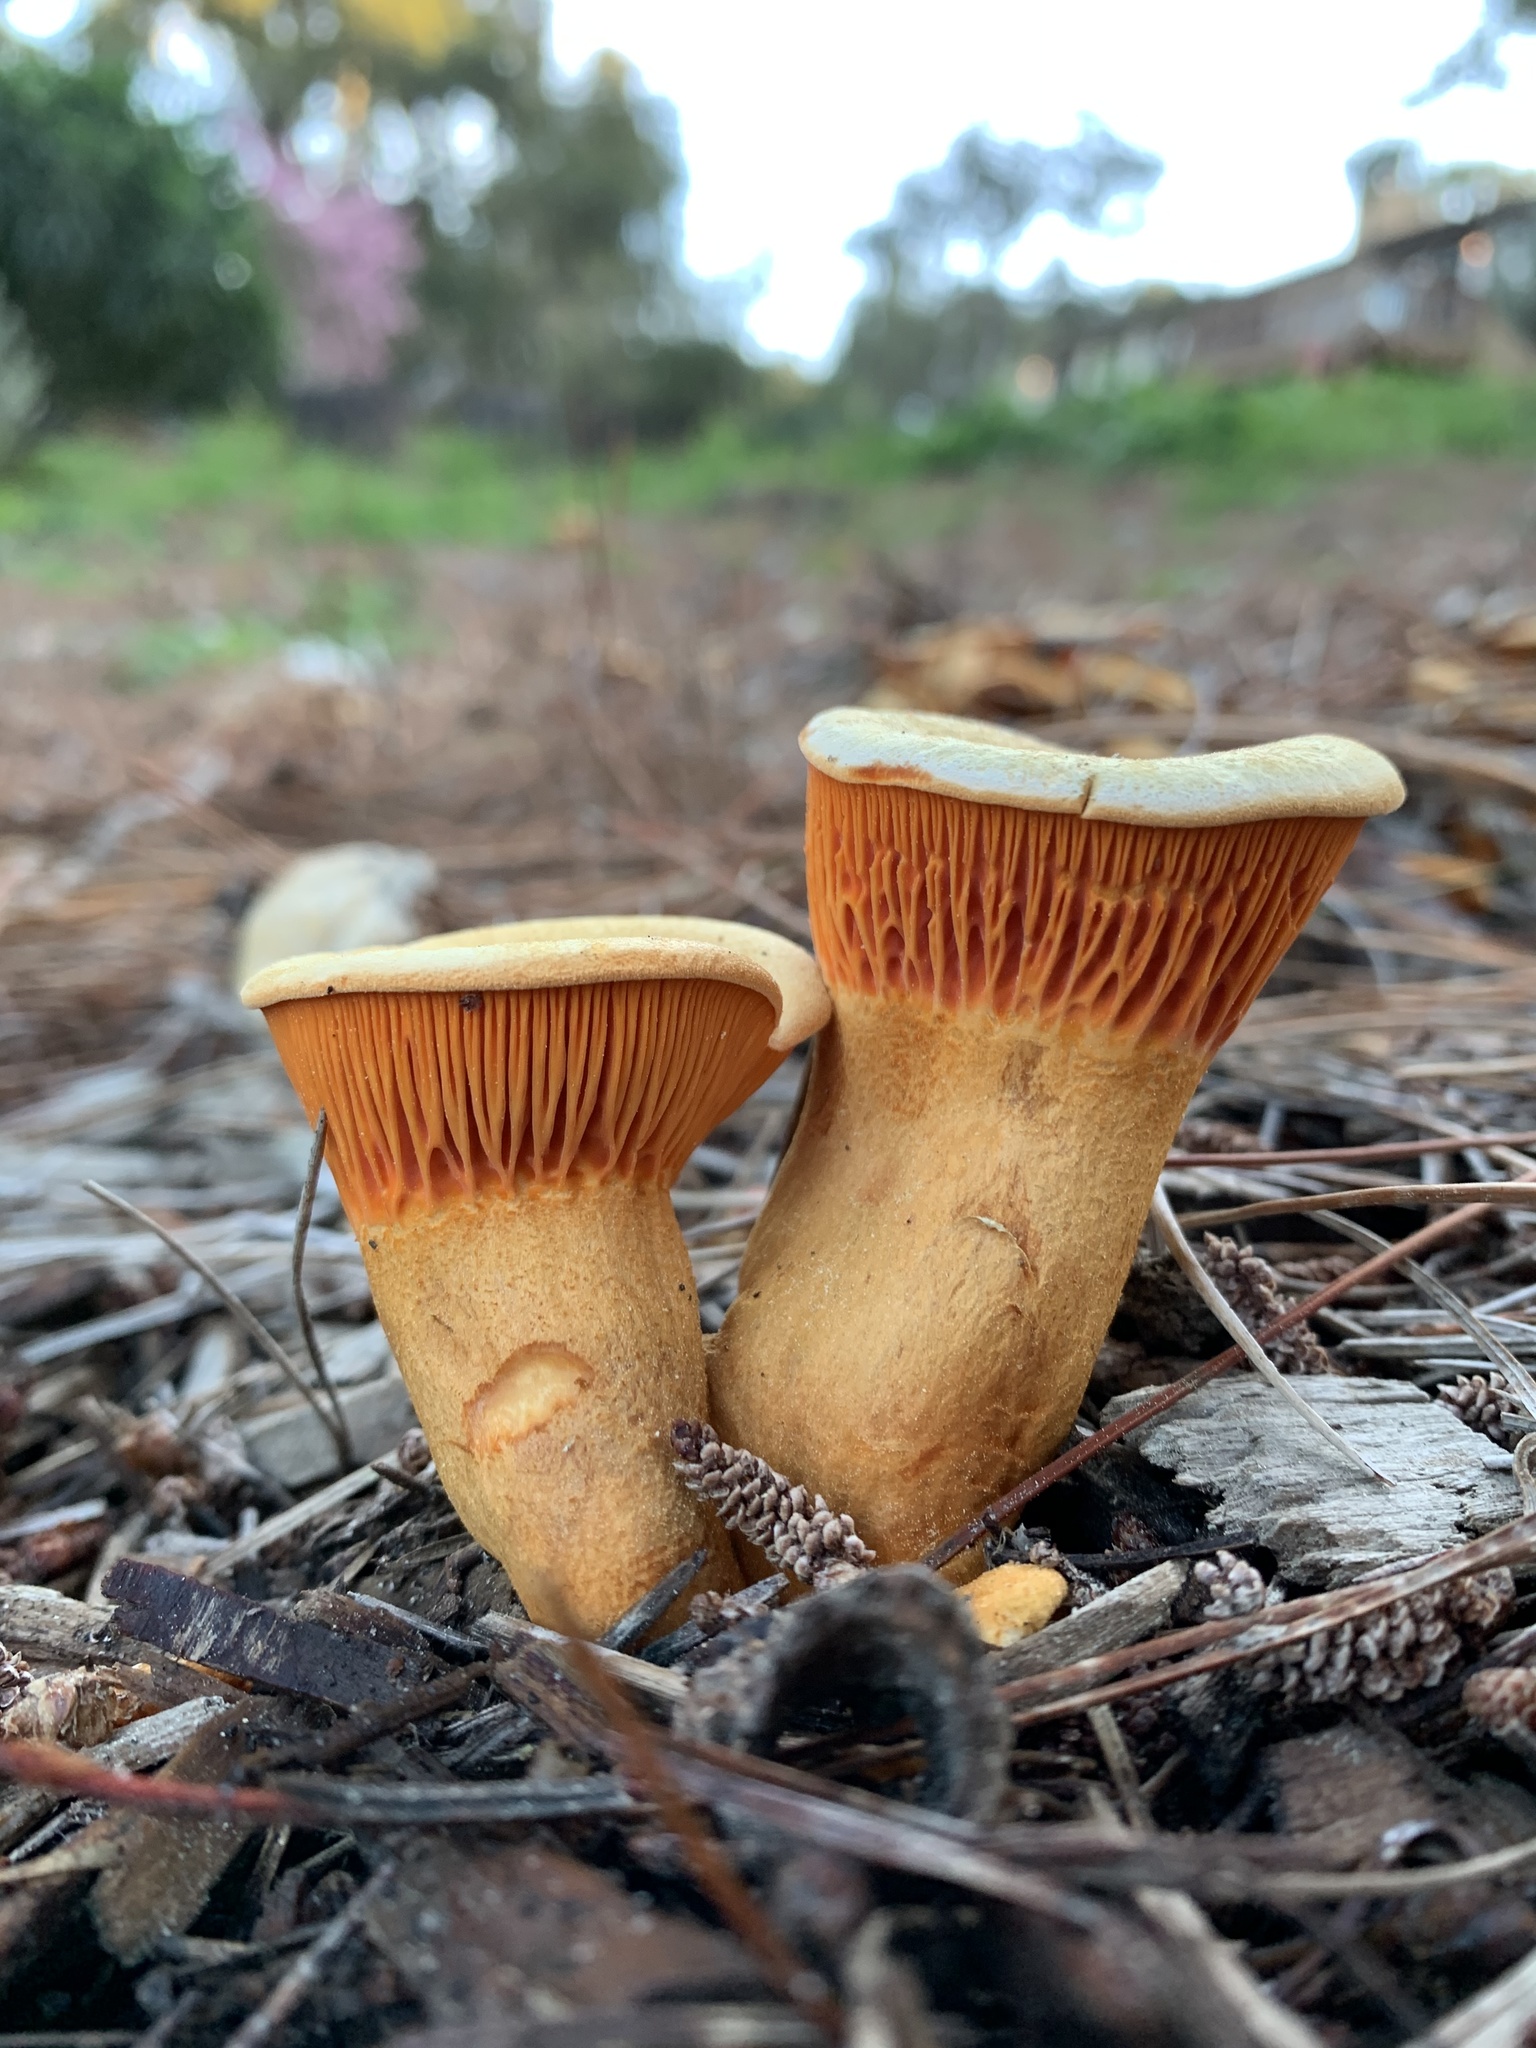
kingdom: Fungi
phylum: Basidiomycota
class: Agaricomycetes
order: Agaricales
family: Omphalotaceae
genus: Omphalotus
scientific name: Omphalotus olivascens
